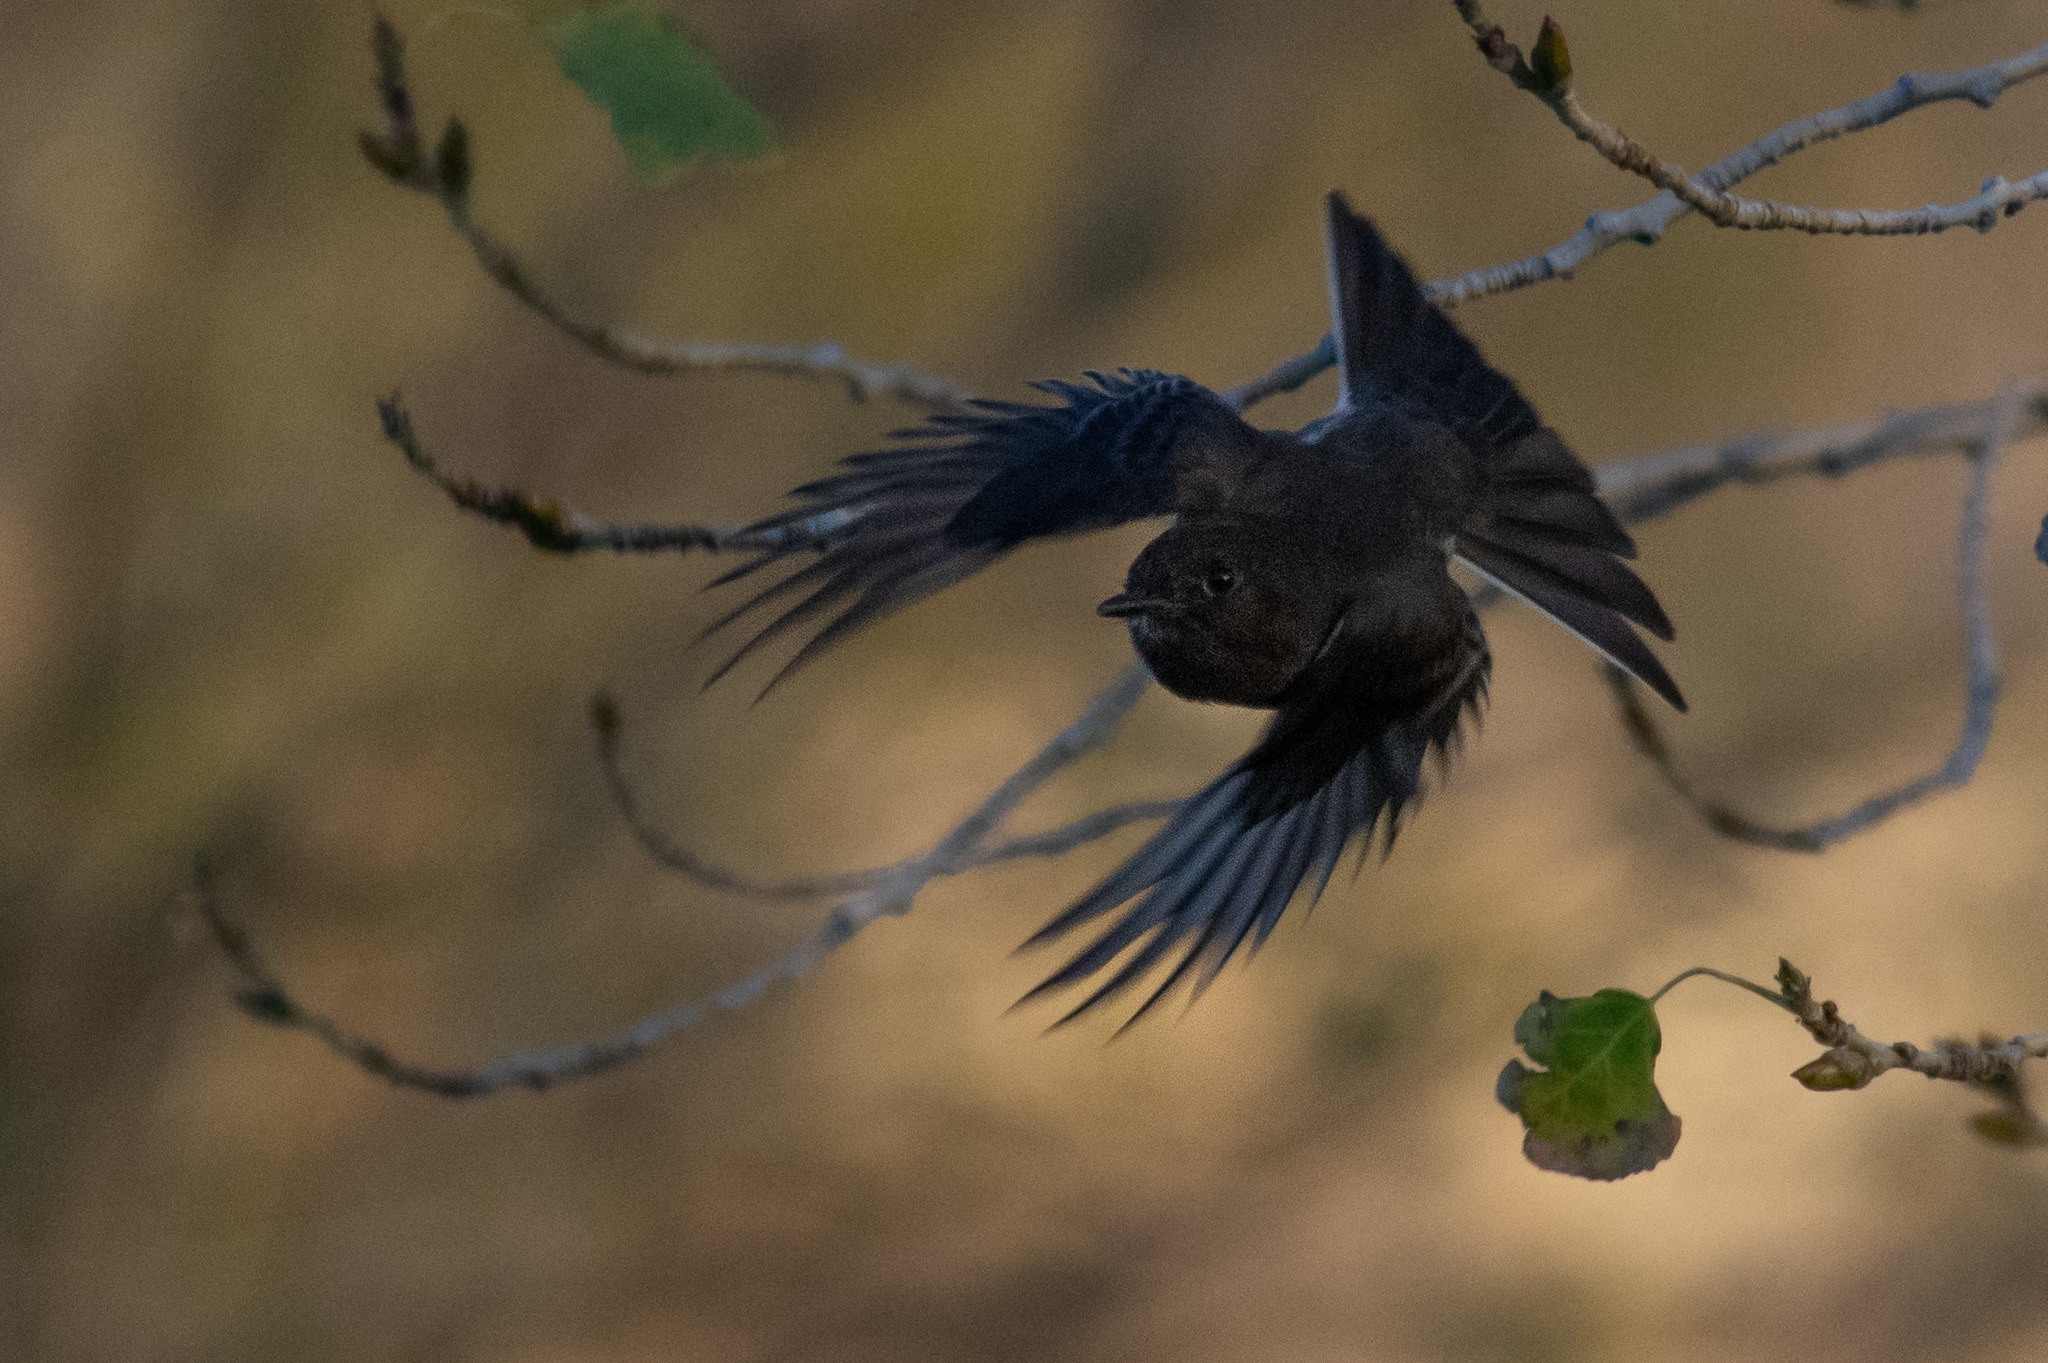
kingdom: Animalia
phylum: Chordata
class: Aves
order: Passeriformes
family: Tyrannidae
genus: Sayornis
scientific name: Sayornis nigricans
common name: Black phoebe
